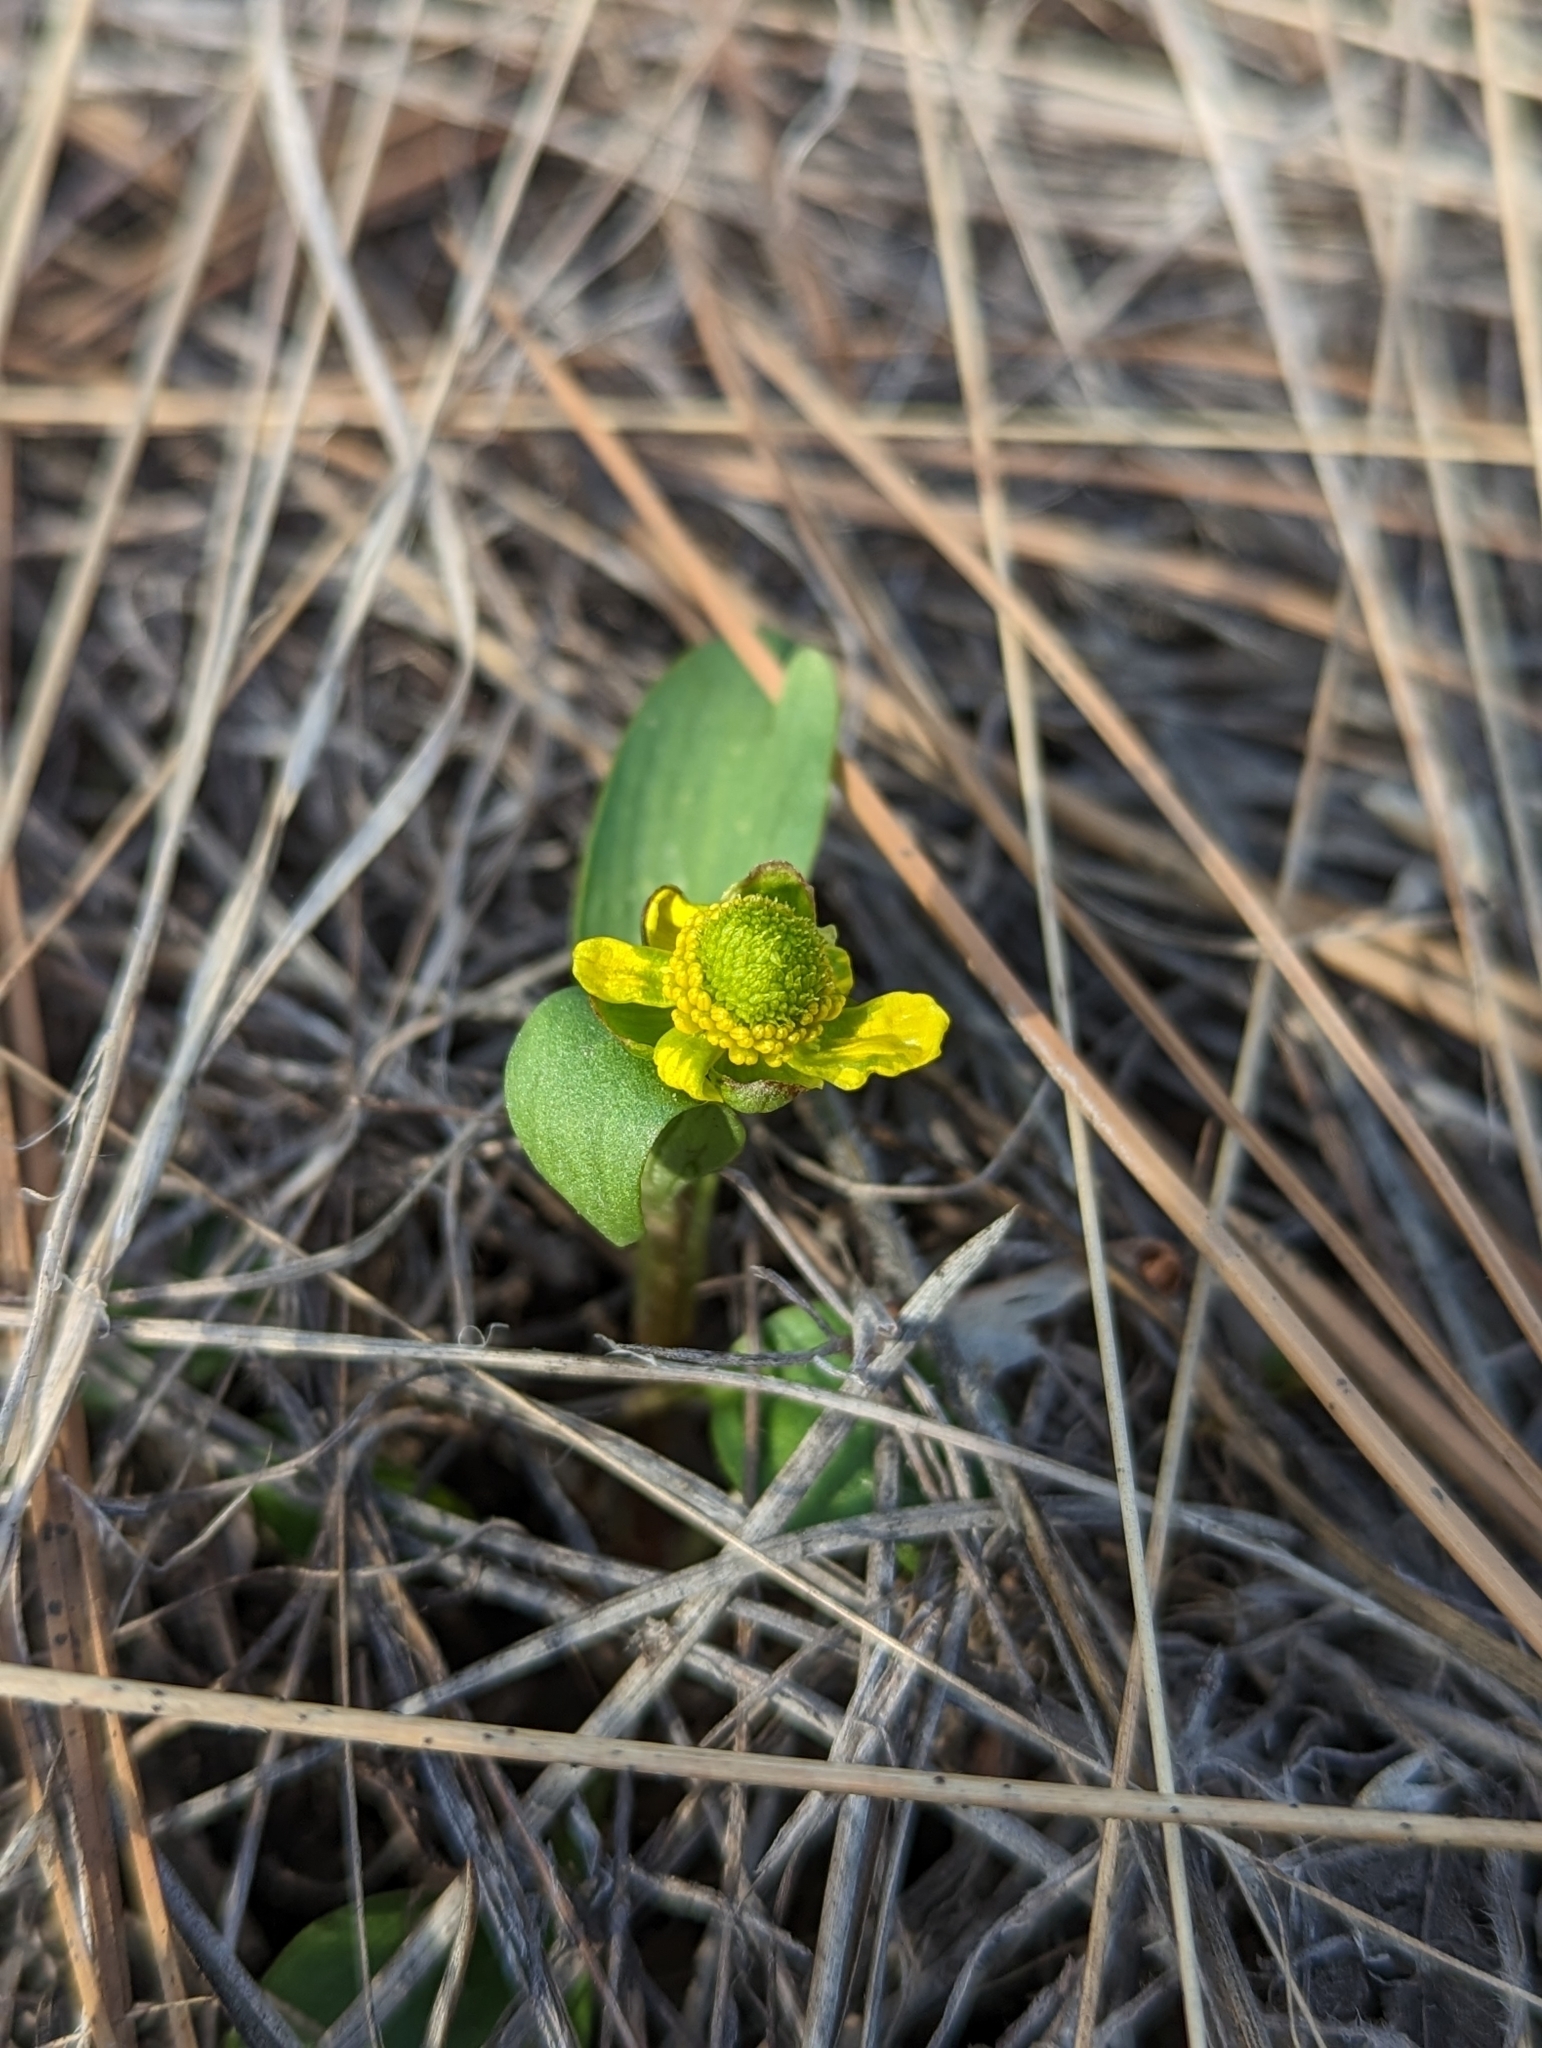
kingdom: Plantae
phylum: Tracheophyta
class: Magnoliopsida
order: Ranunculales
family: Ranunculaceae
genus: Ranunculus
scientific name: Ranunculus glaberrimus
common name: Sagebrush buttercup
